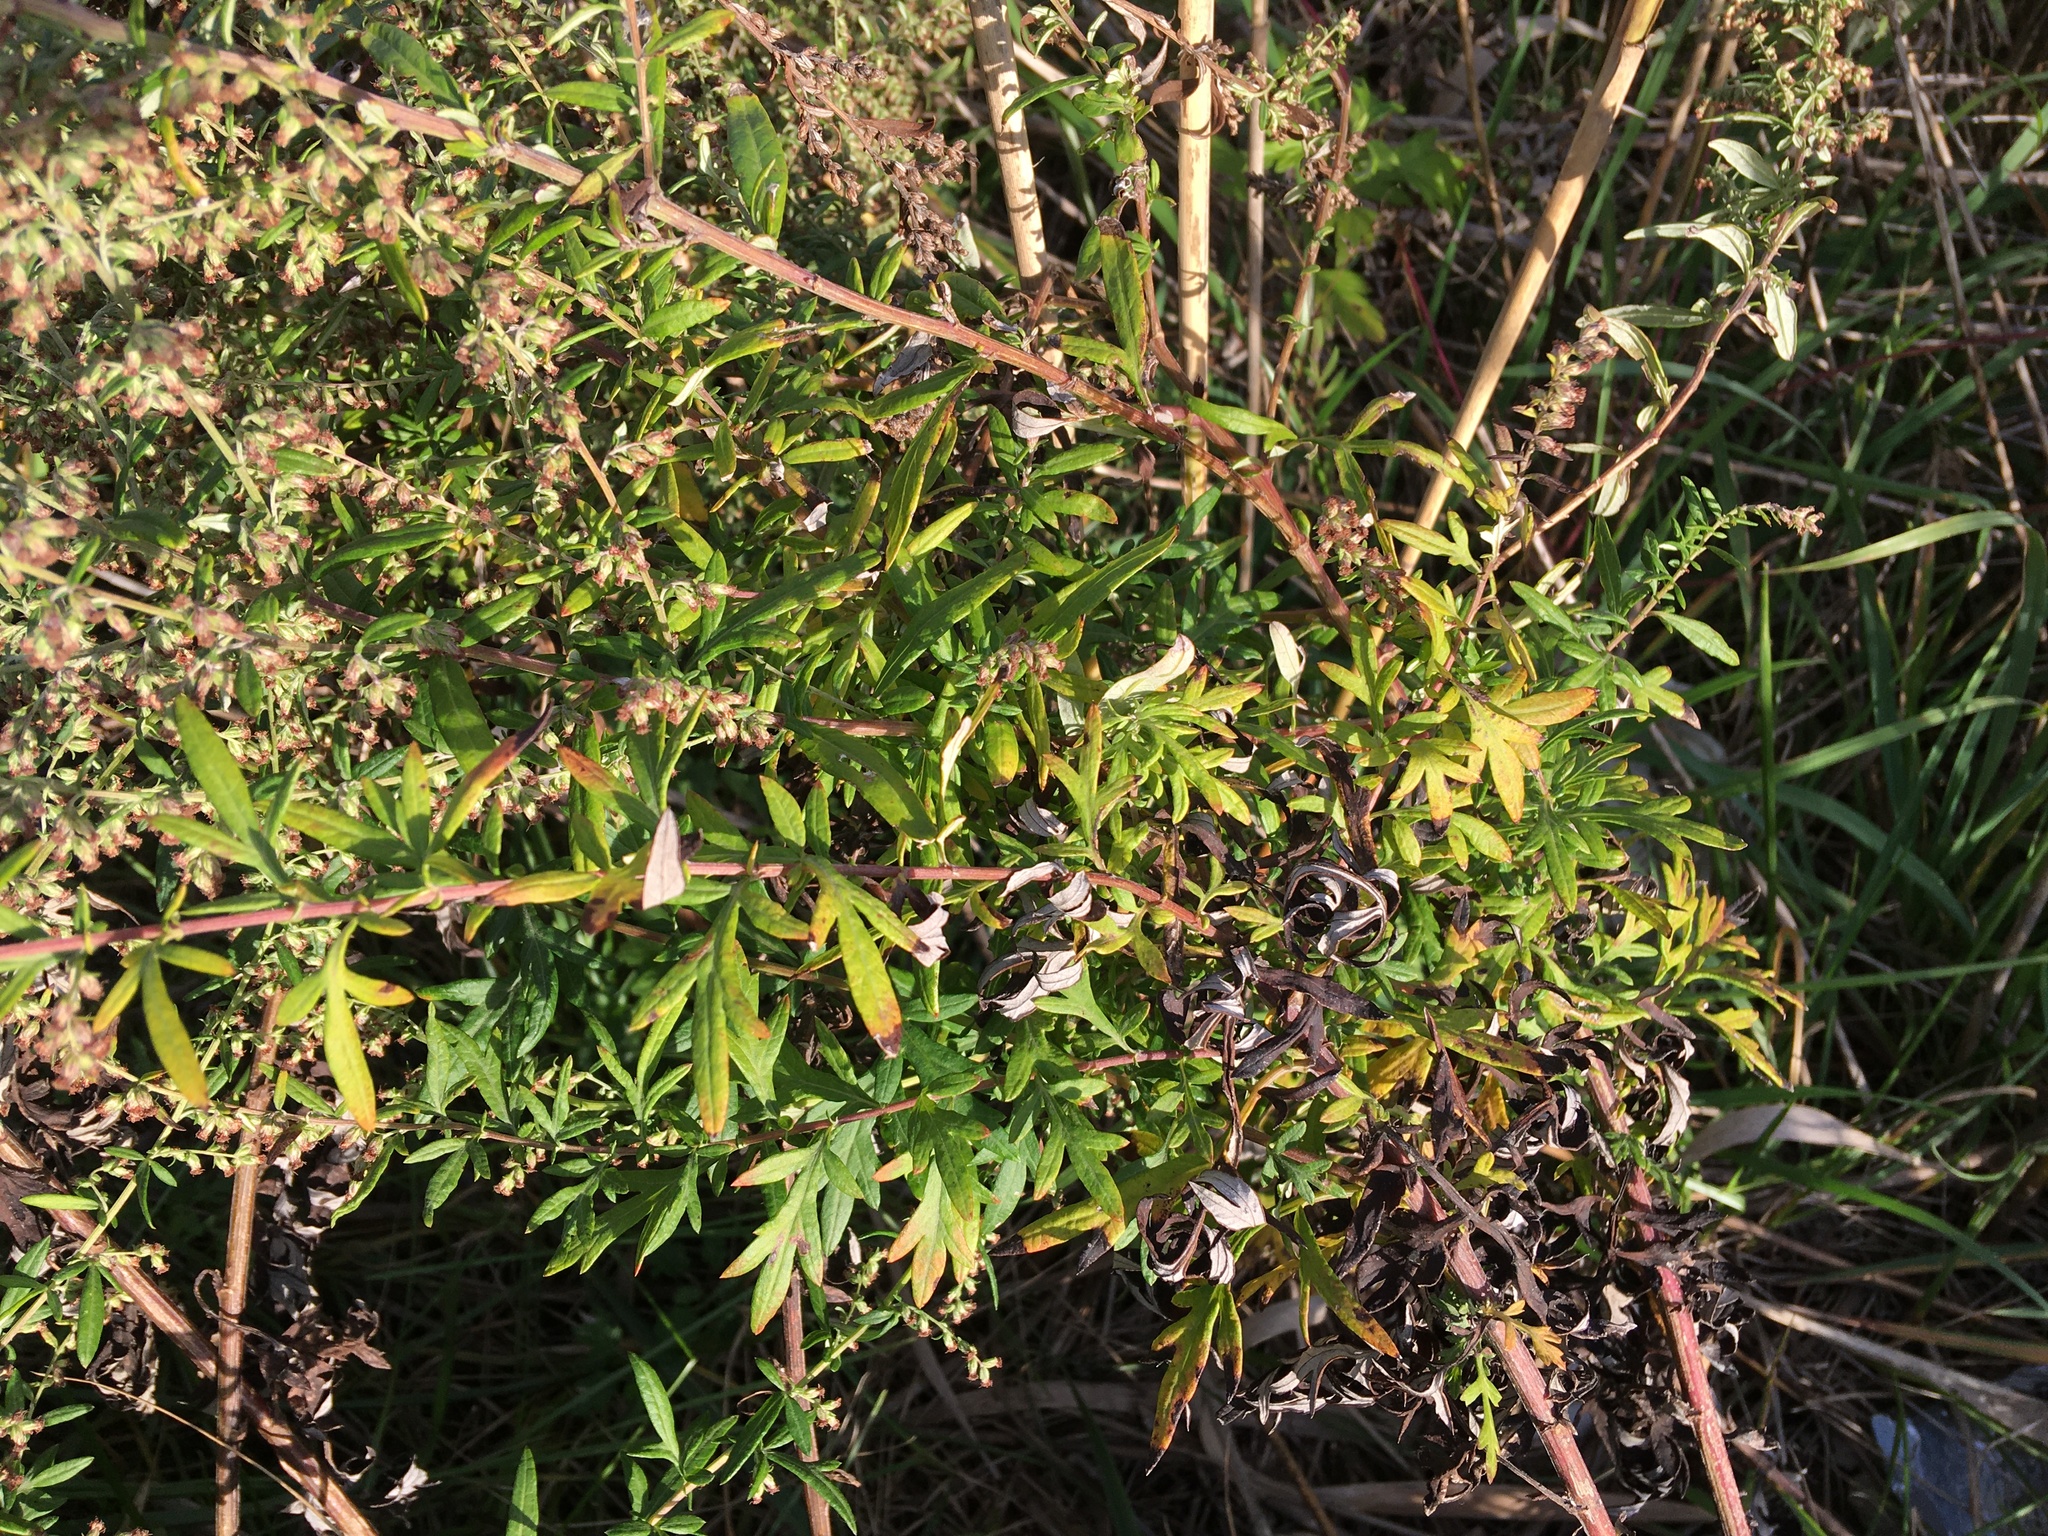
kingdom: Plantae
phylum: Tracheophyta
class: Magnoliopsida
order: Asterales
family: Asteraceae
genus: Artemisia
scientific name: Artemisia vulgaris
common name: Mugwort
